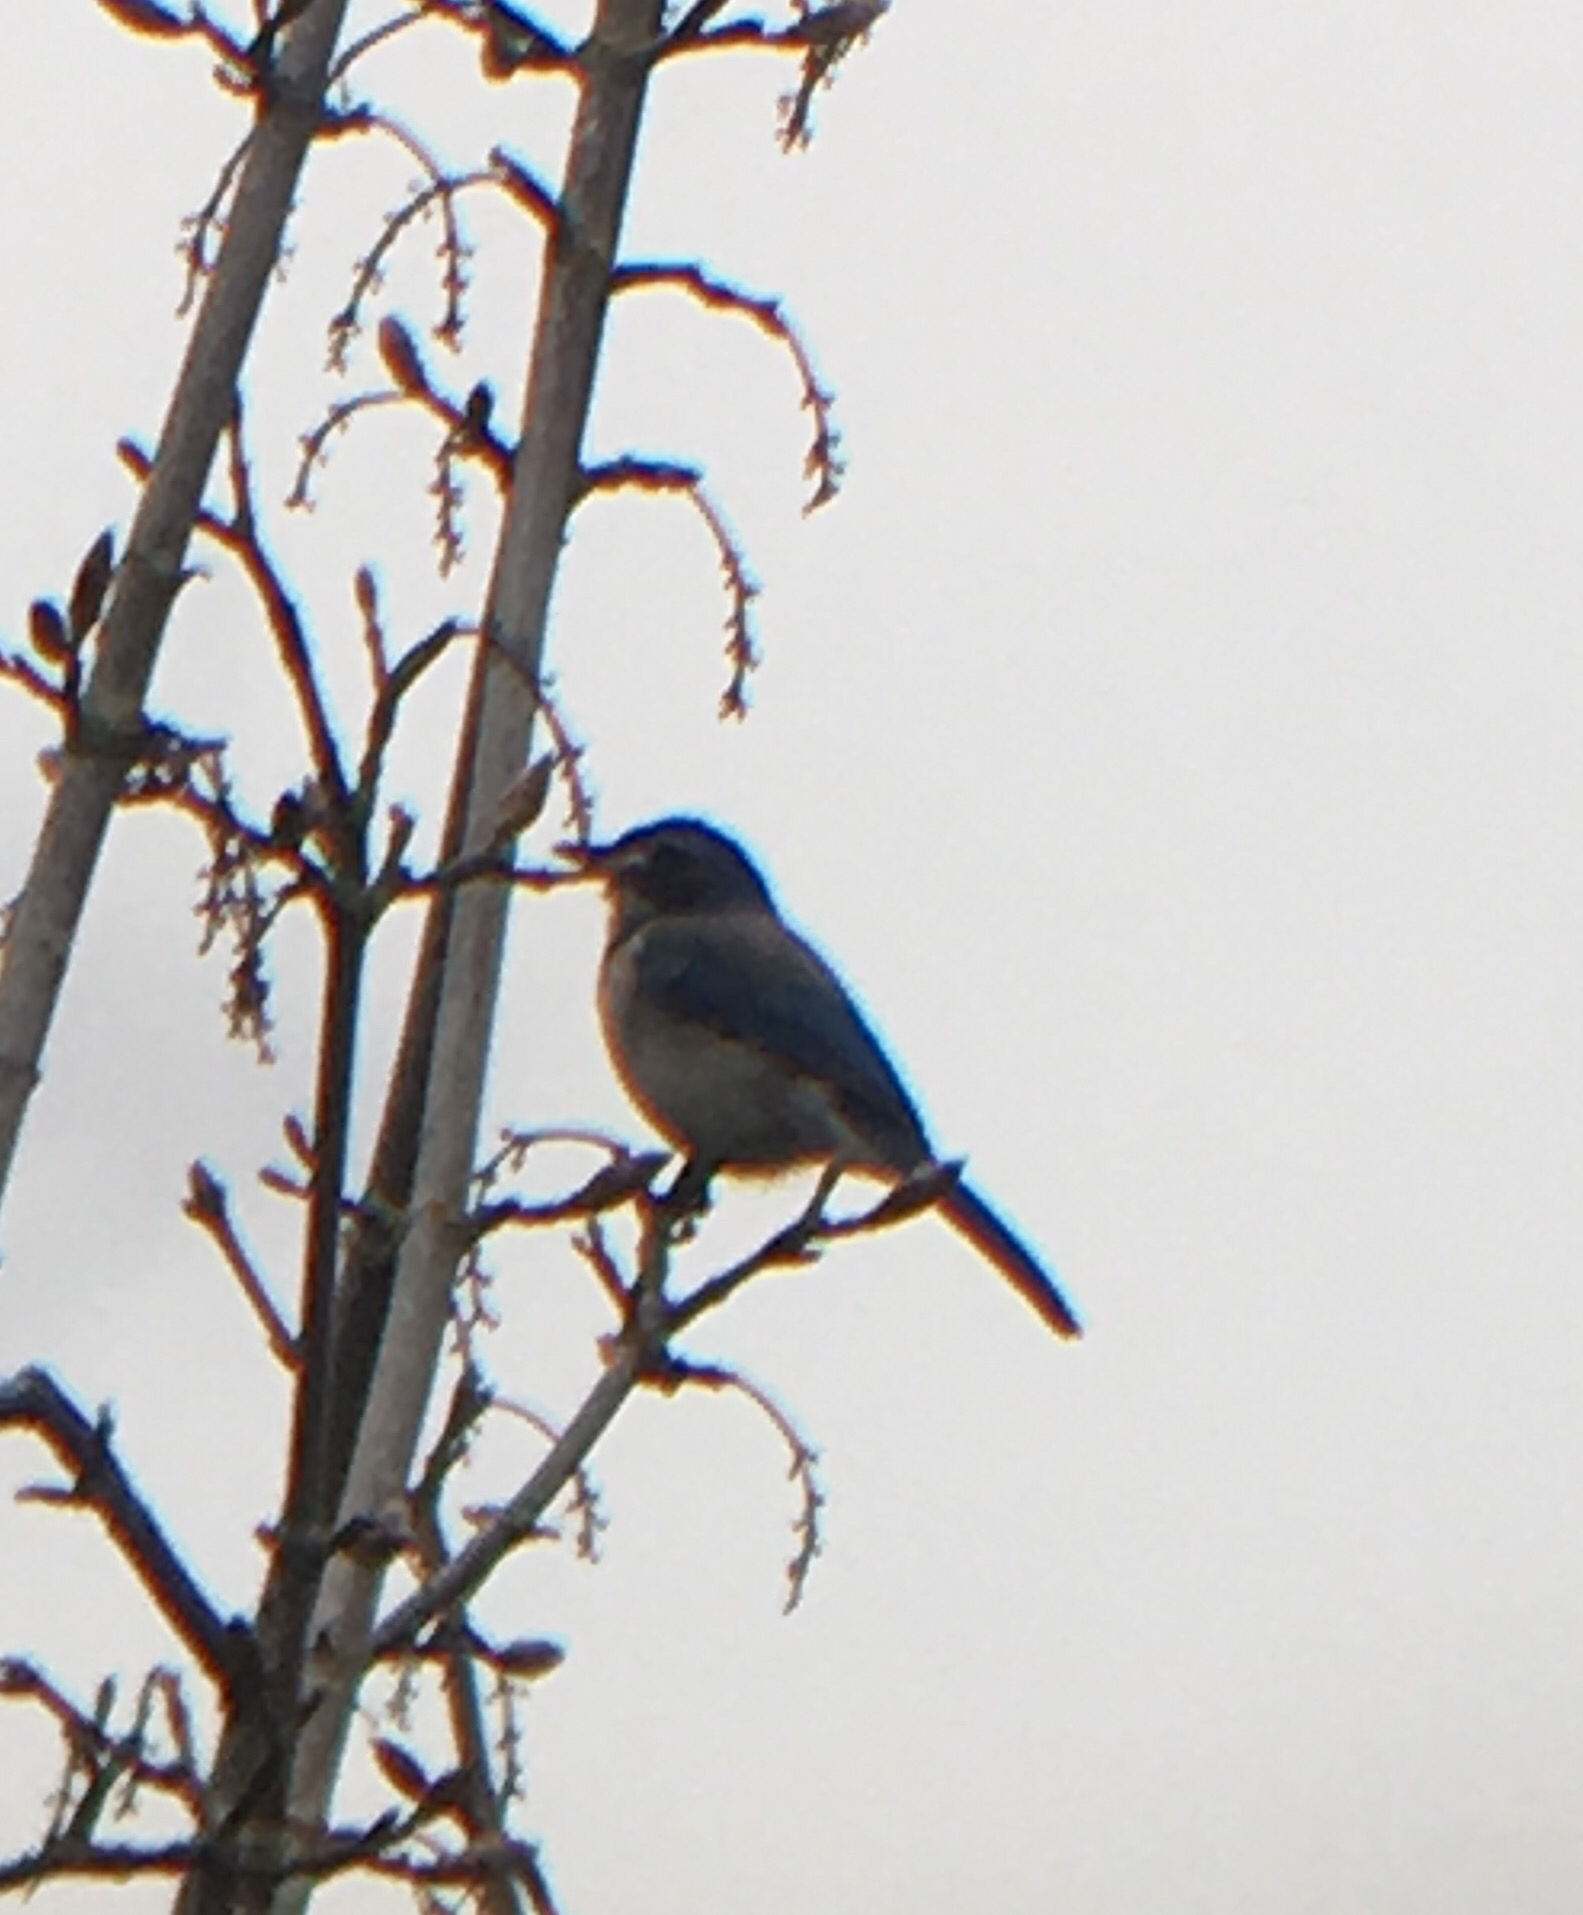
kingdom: Animalia
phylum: Chordata
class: Aves
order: Passeriformes
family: Corvidae
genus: Aphelocoma
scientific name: Aphelocoma californica
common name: California scrub-jay
